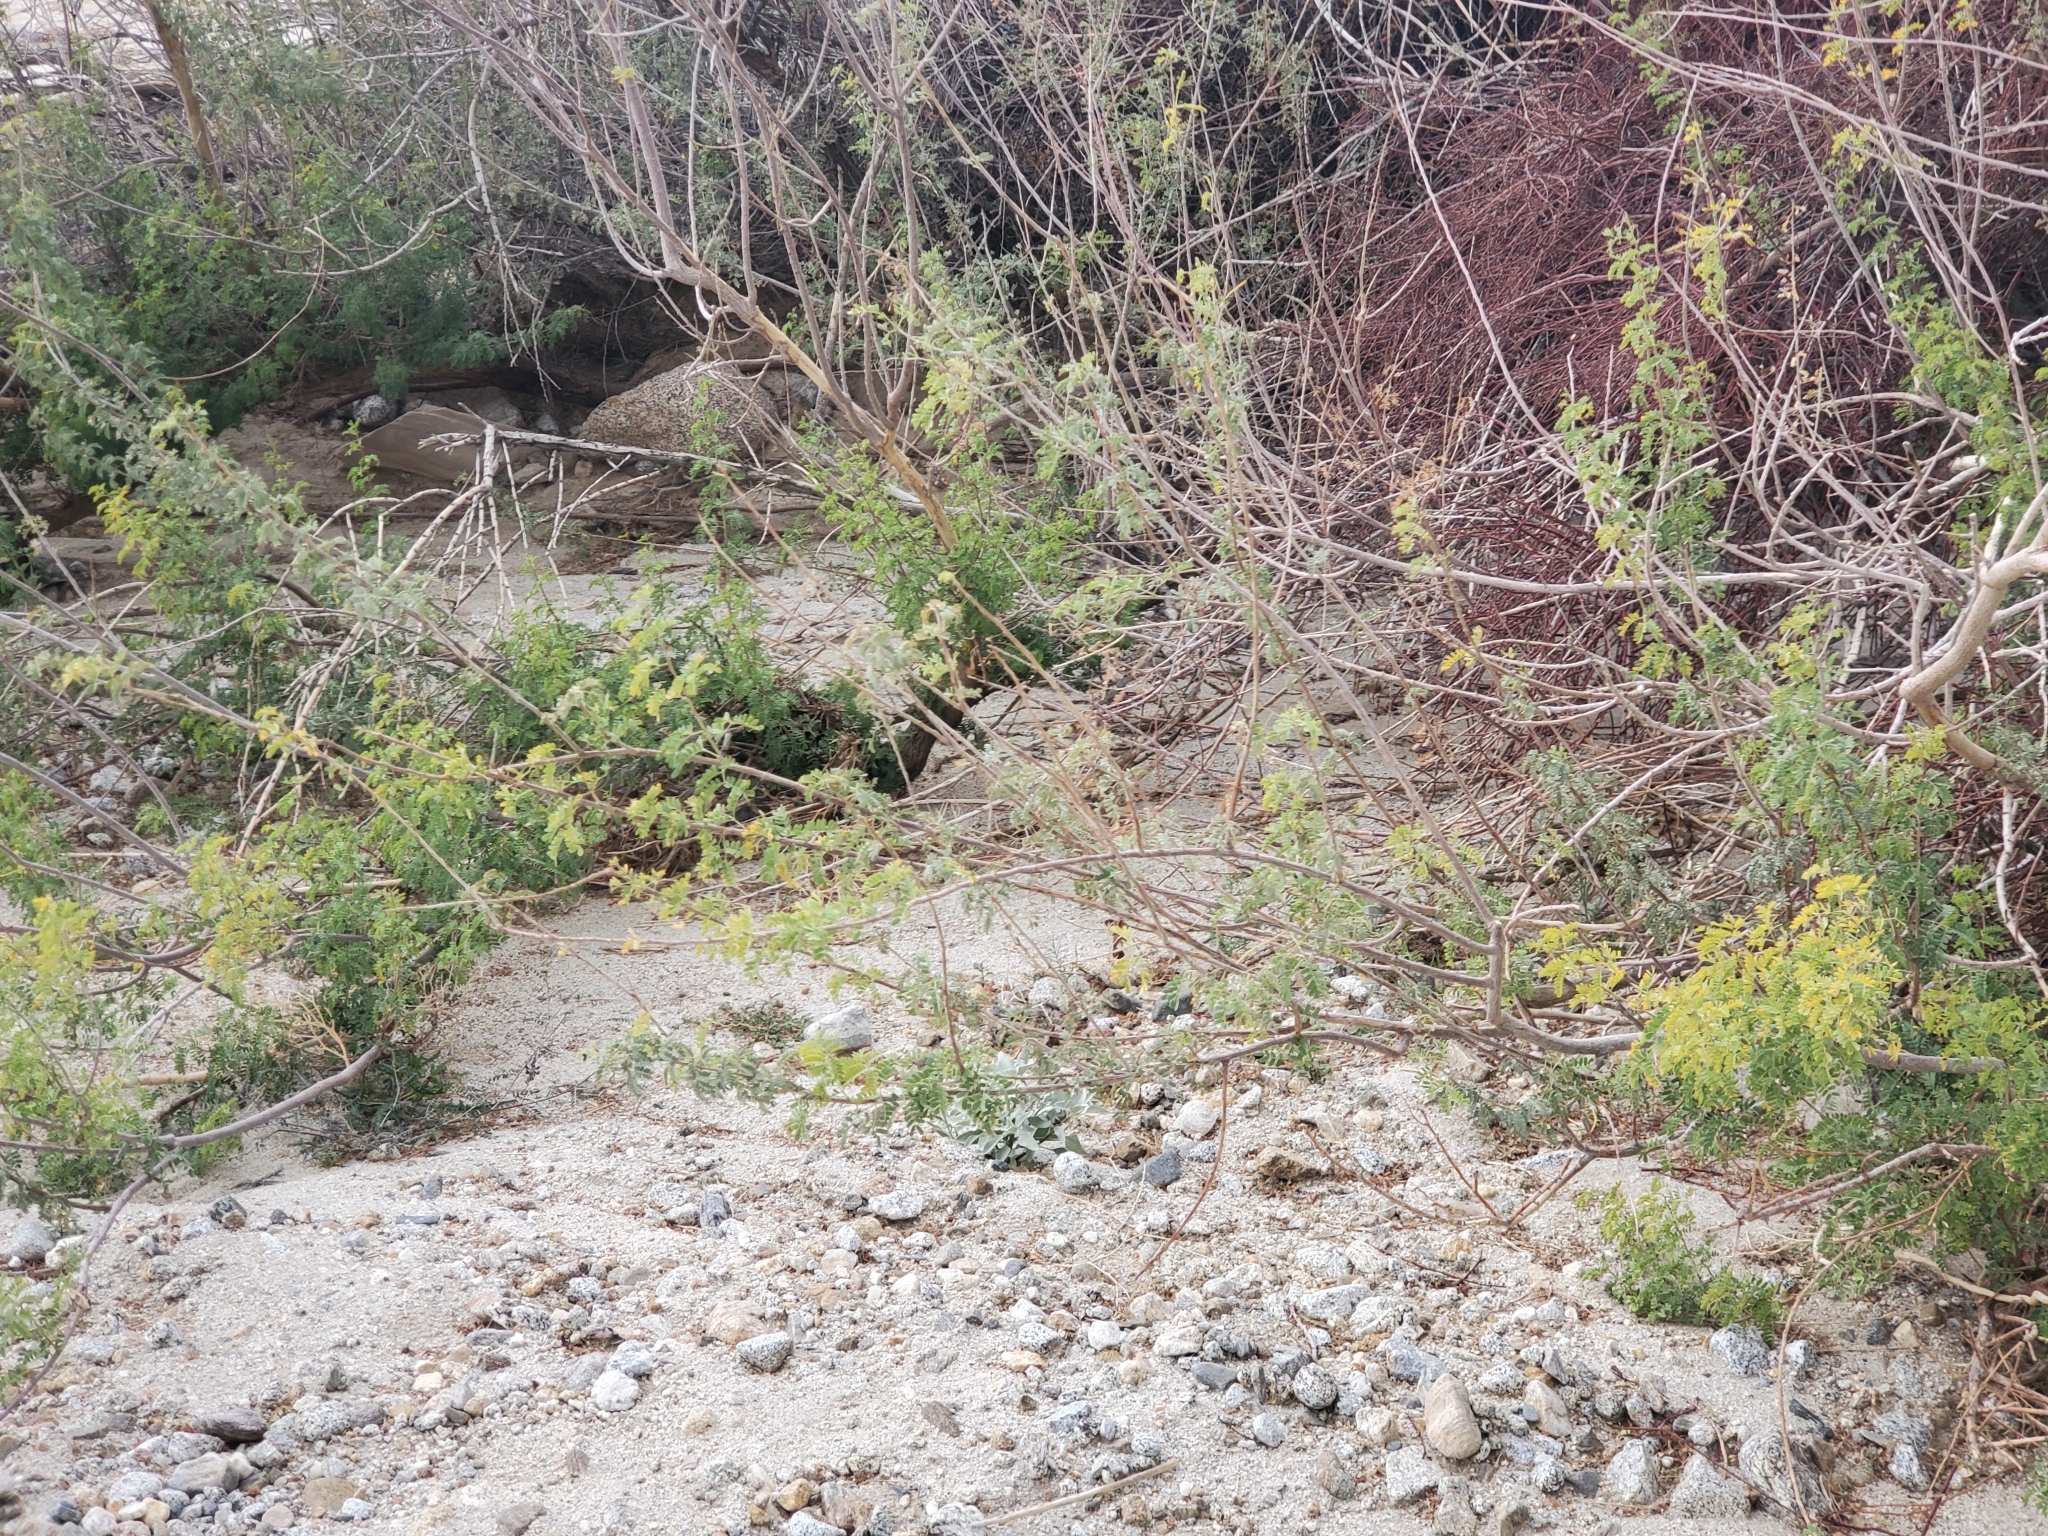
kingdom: Plantae
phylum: Tracheophyta
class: Magnoliopsida
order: Fabales
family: Fabaceae
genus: Senegalia
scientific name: Senegalia greggii
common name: Texas-mimosa
